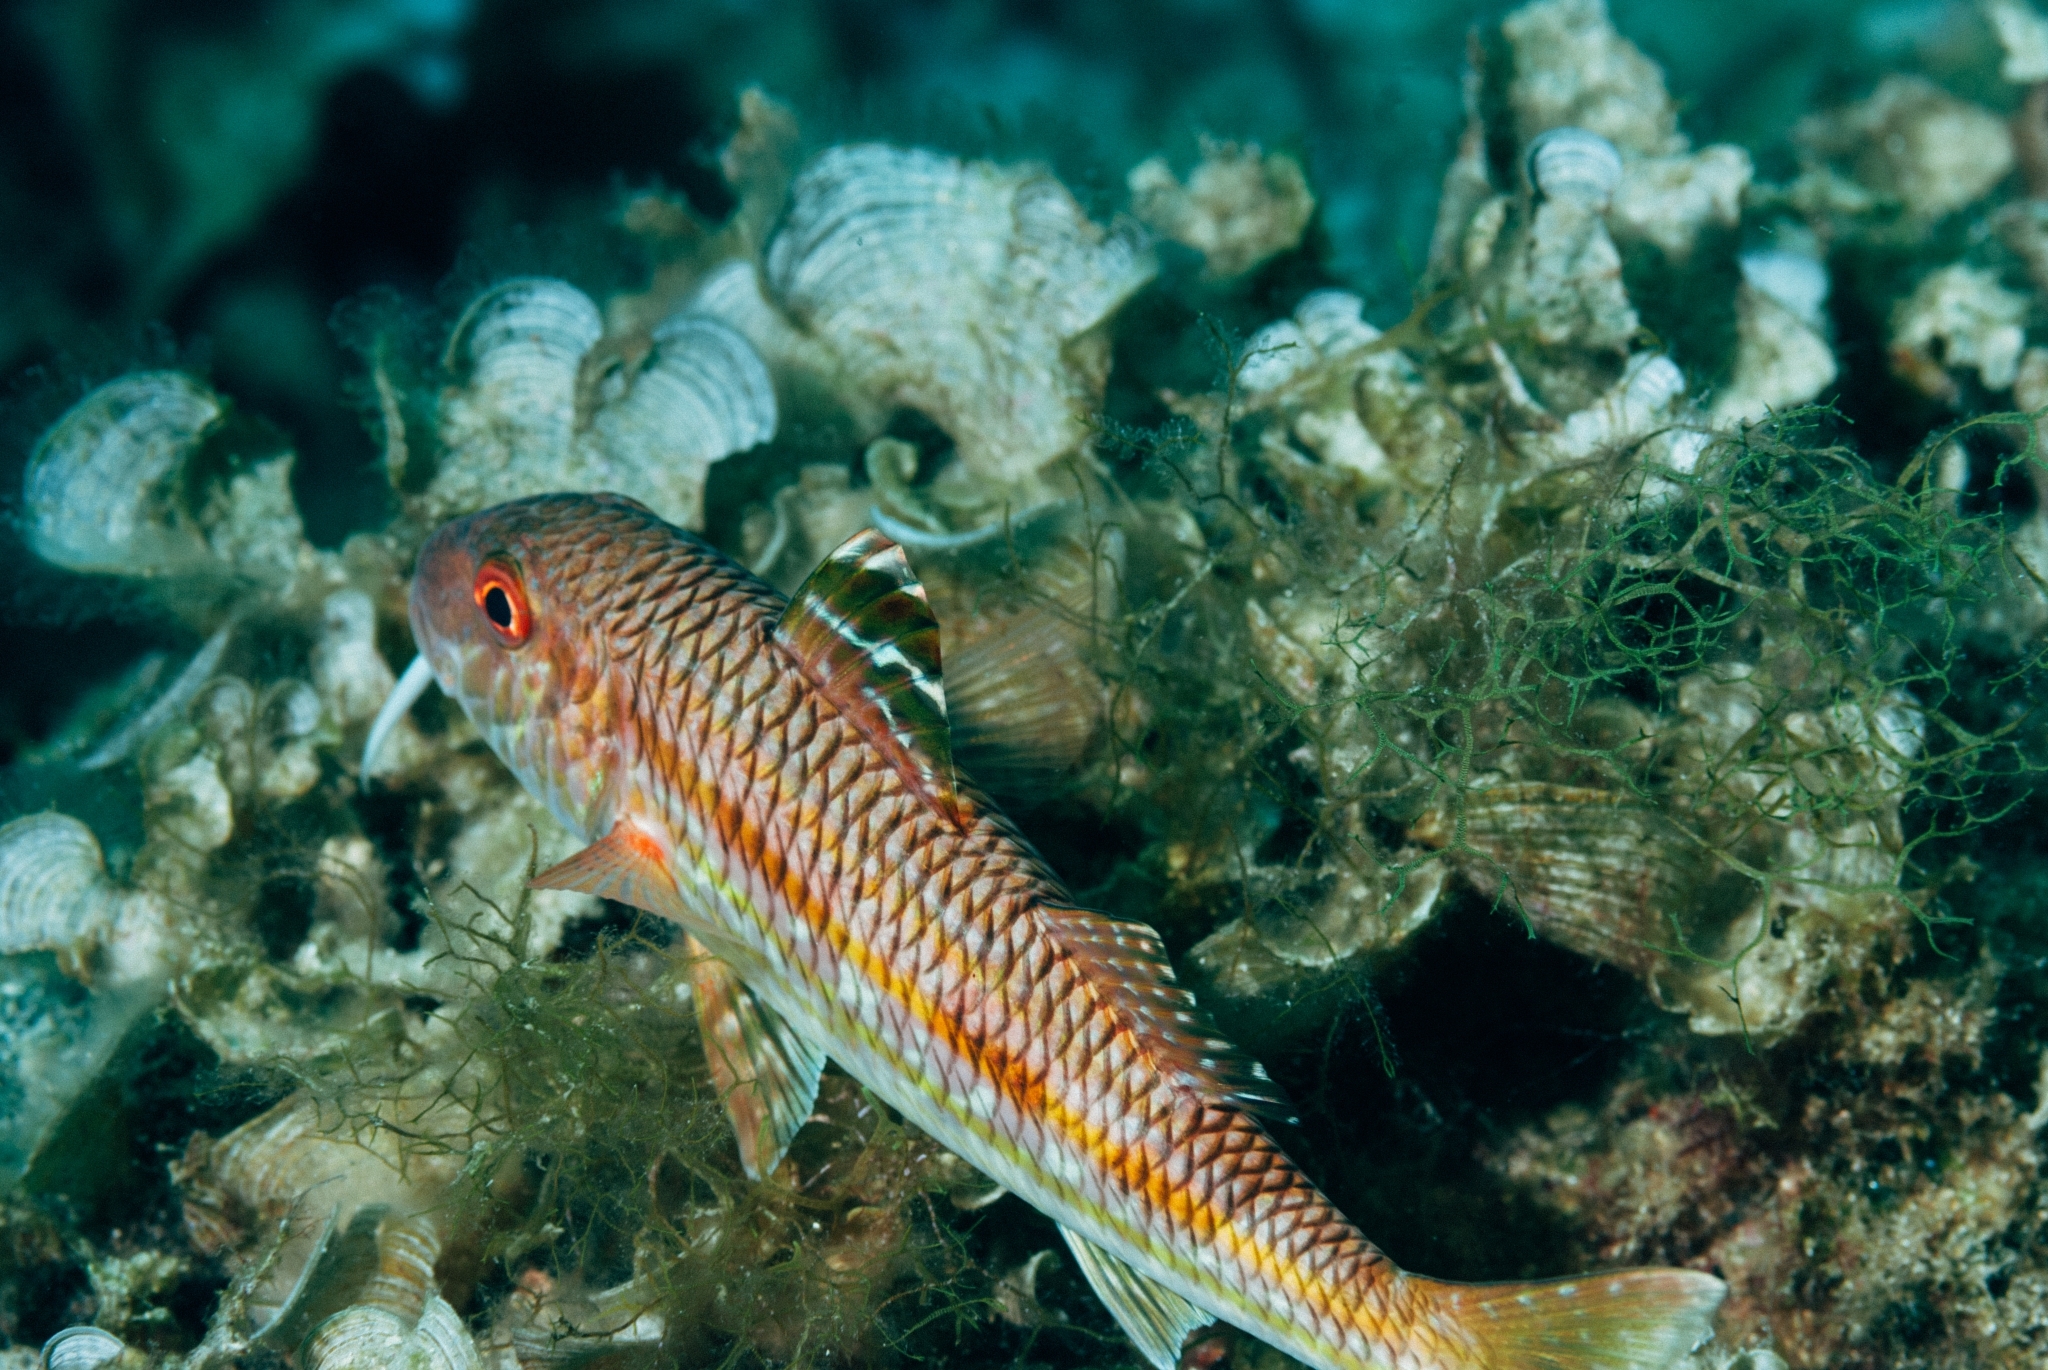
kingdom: Animalia
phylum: Chordata
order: Perciformes
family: Mullidae
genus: Mullus
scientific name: Mullus surmuletus
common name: Red mullet
